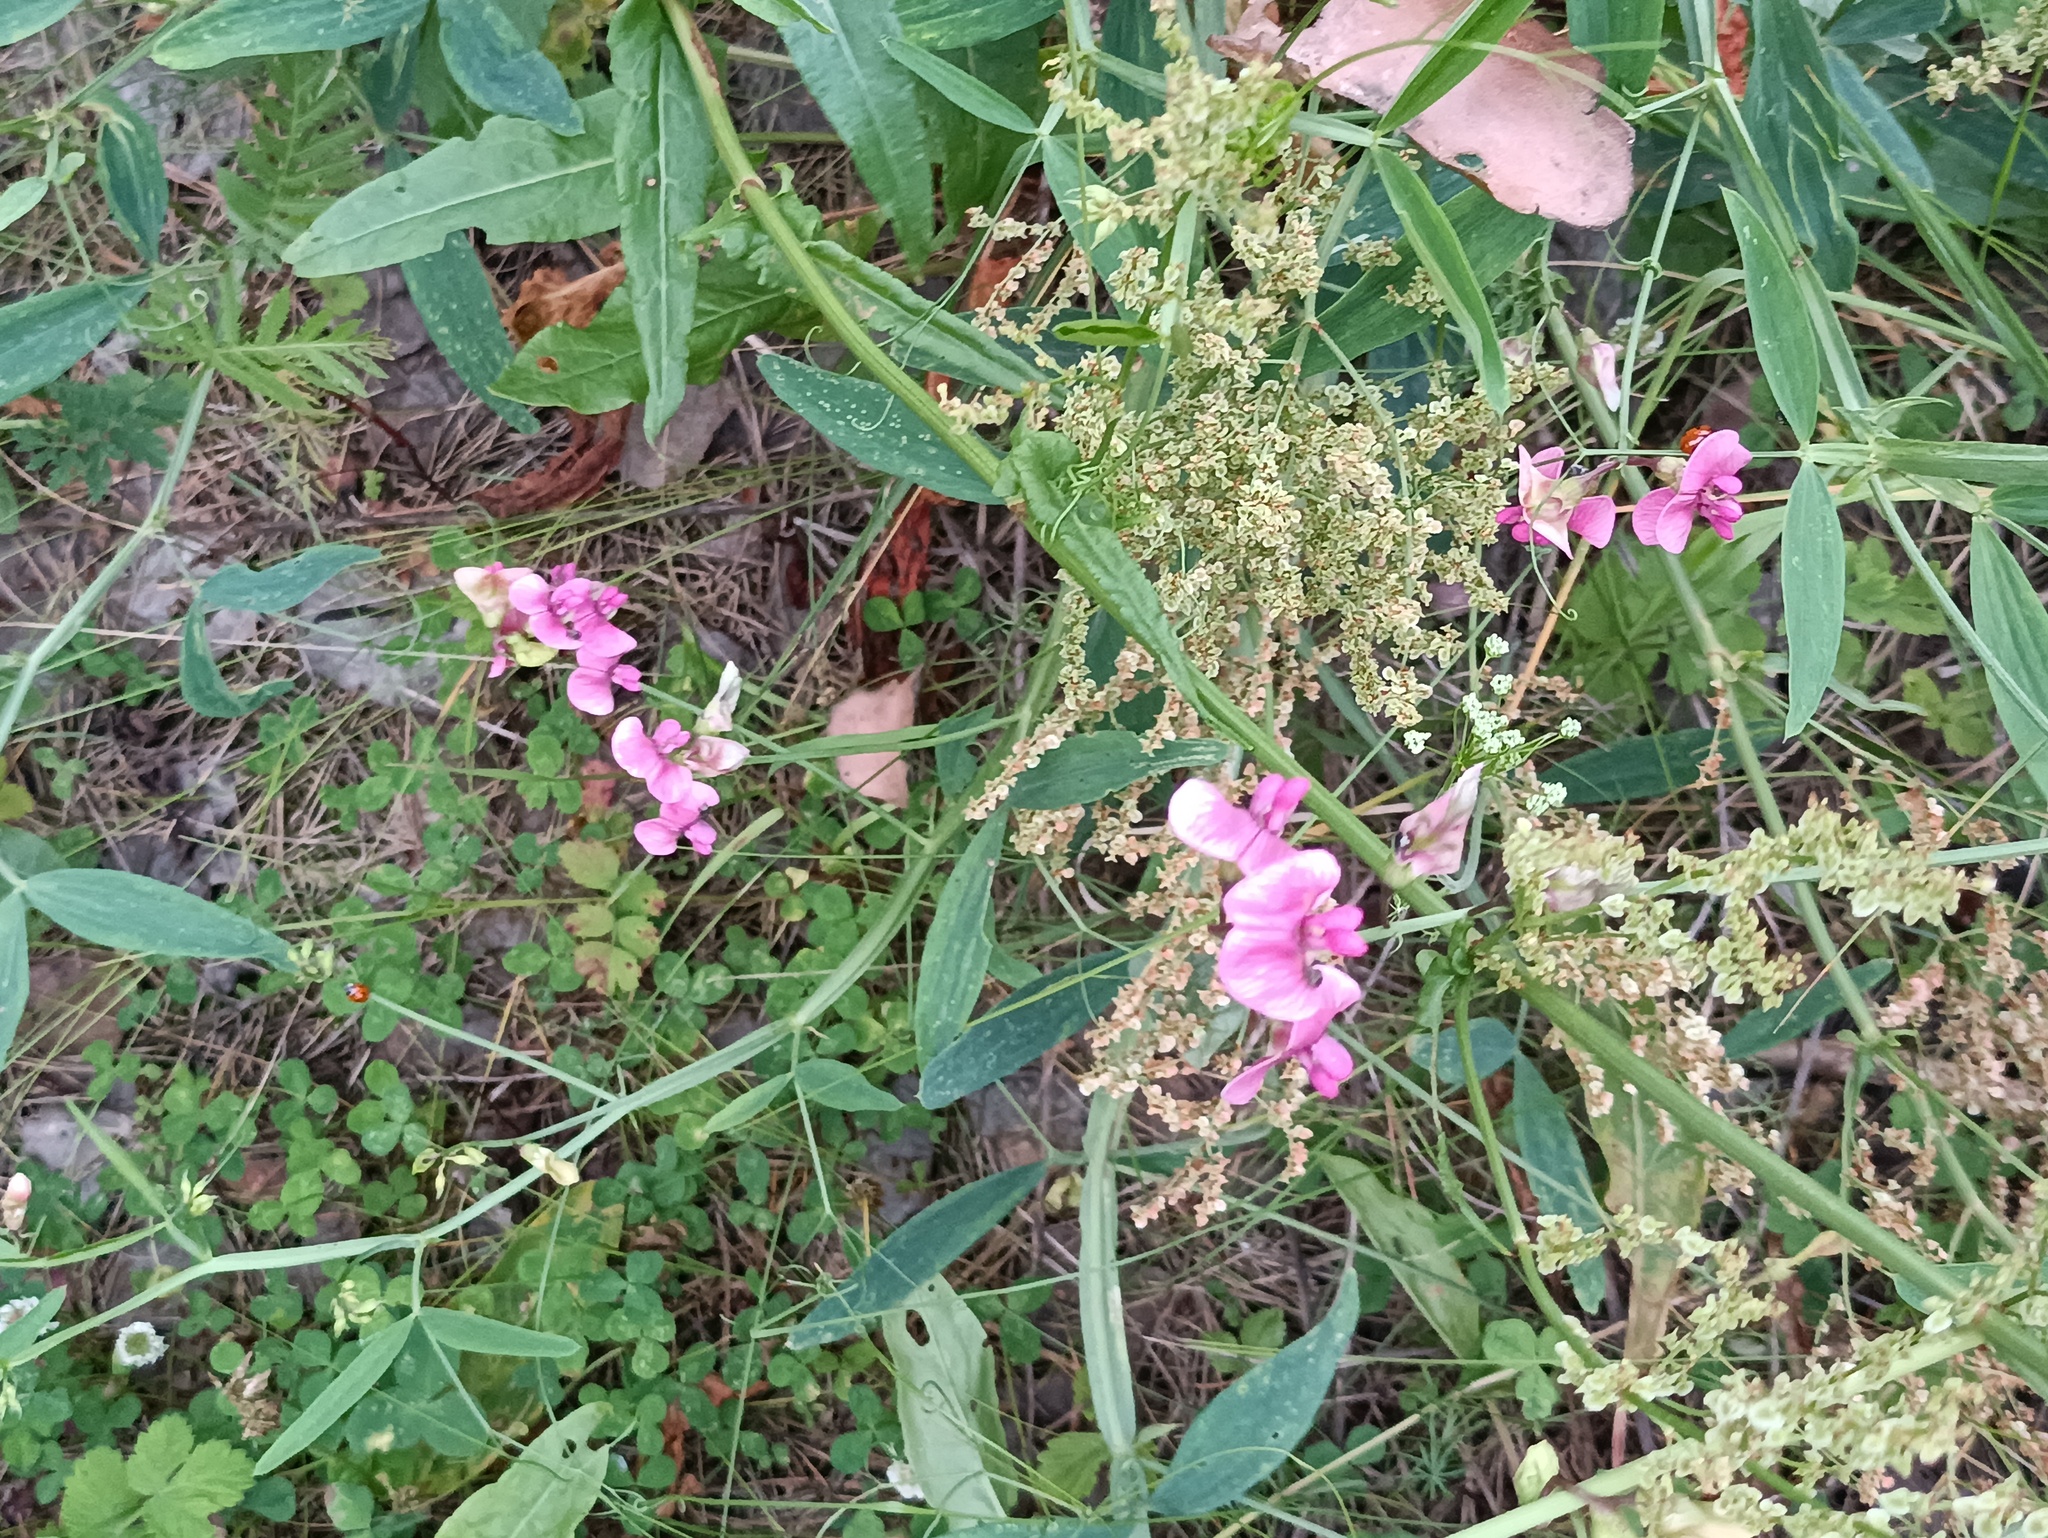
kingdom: Plantae
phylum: Tracheophyta
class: Magnoliopsida
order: Fabales
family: Fabaceae
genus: Lathyrus
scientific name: Lathyrus sylvestris
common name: Flat pea
